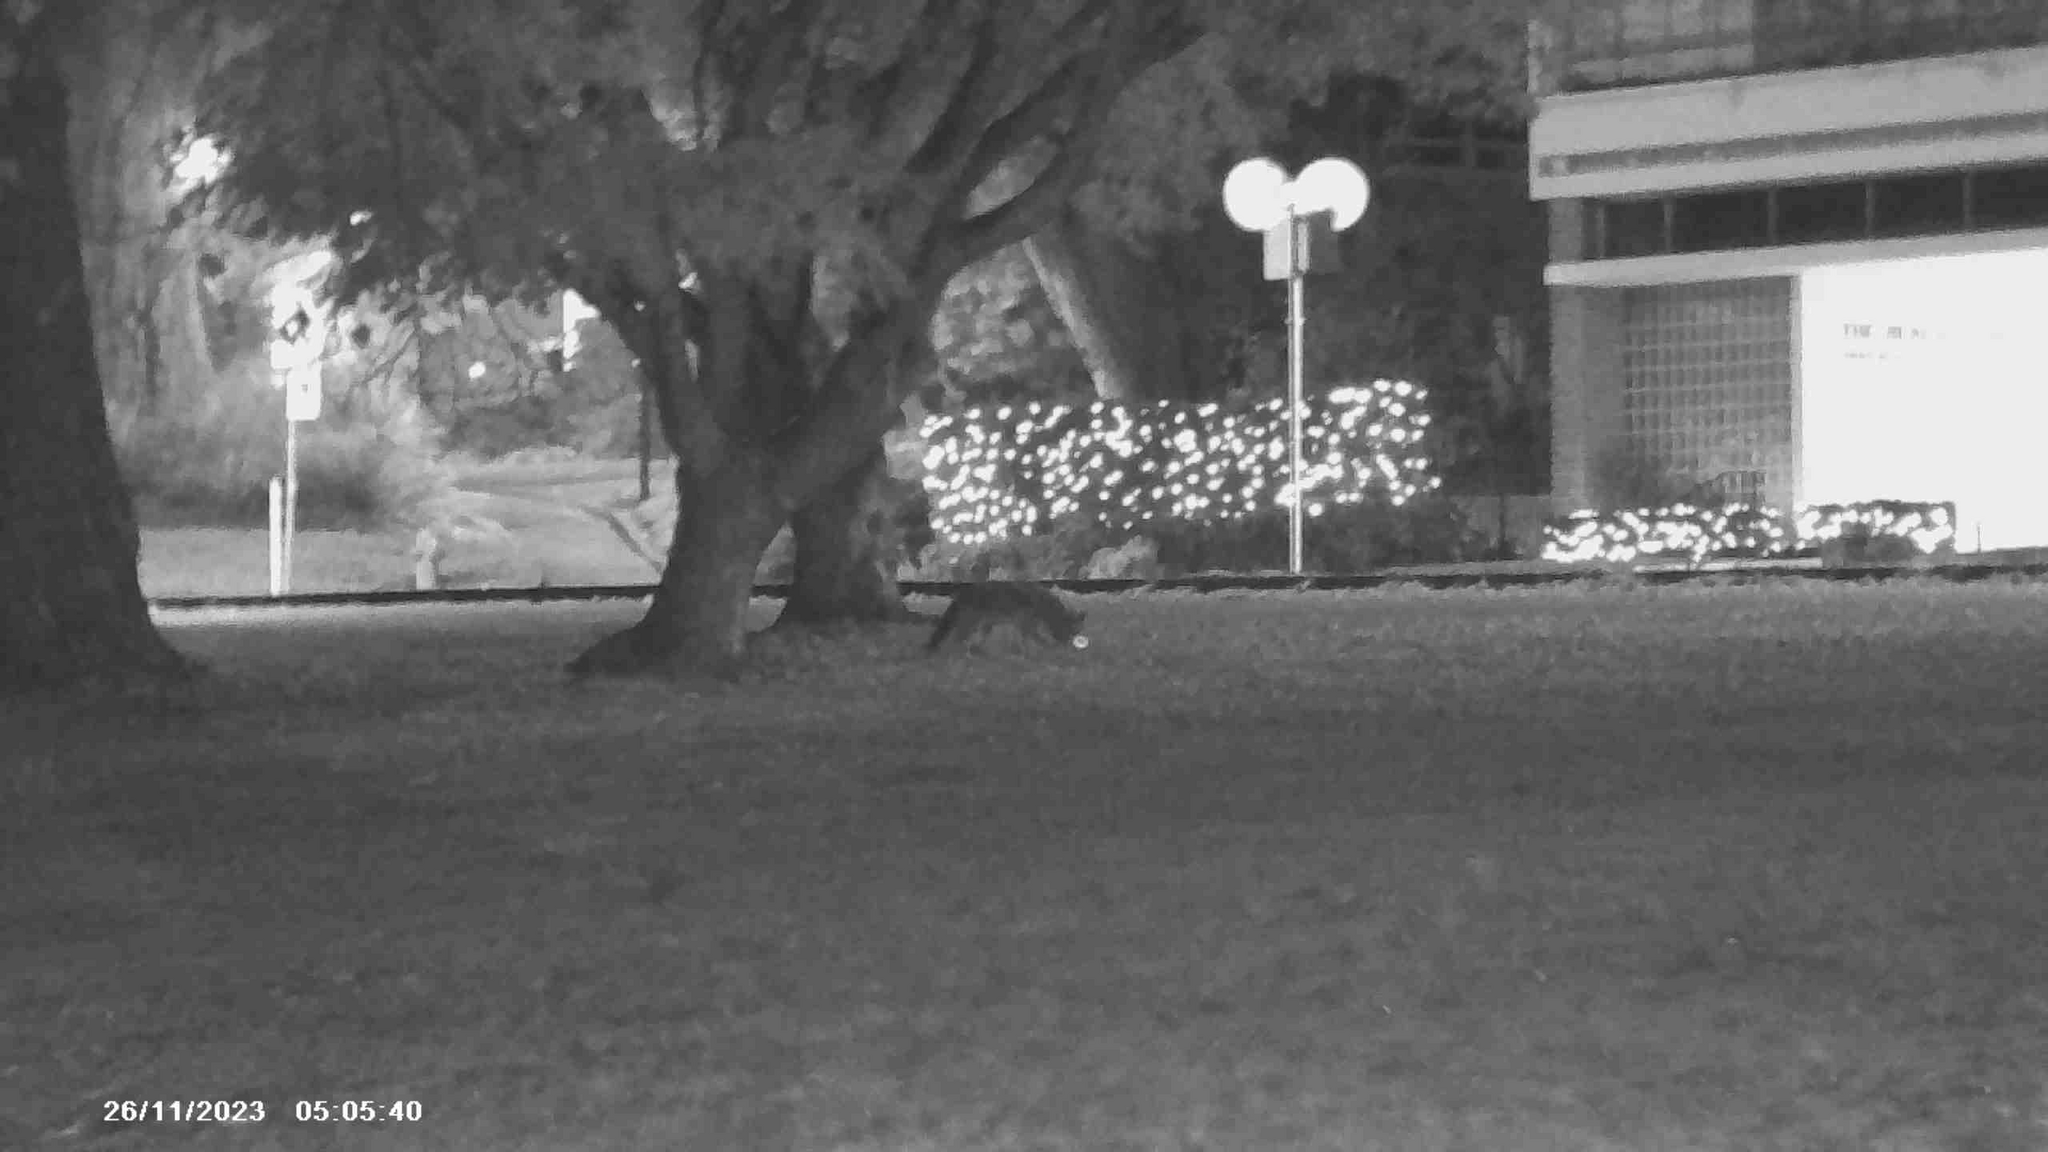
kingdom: Animalia
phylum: Chordata
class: Mammalia
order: Carnivora
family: Canidae
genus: Canis
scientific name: Canis latrans
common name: Coyote
